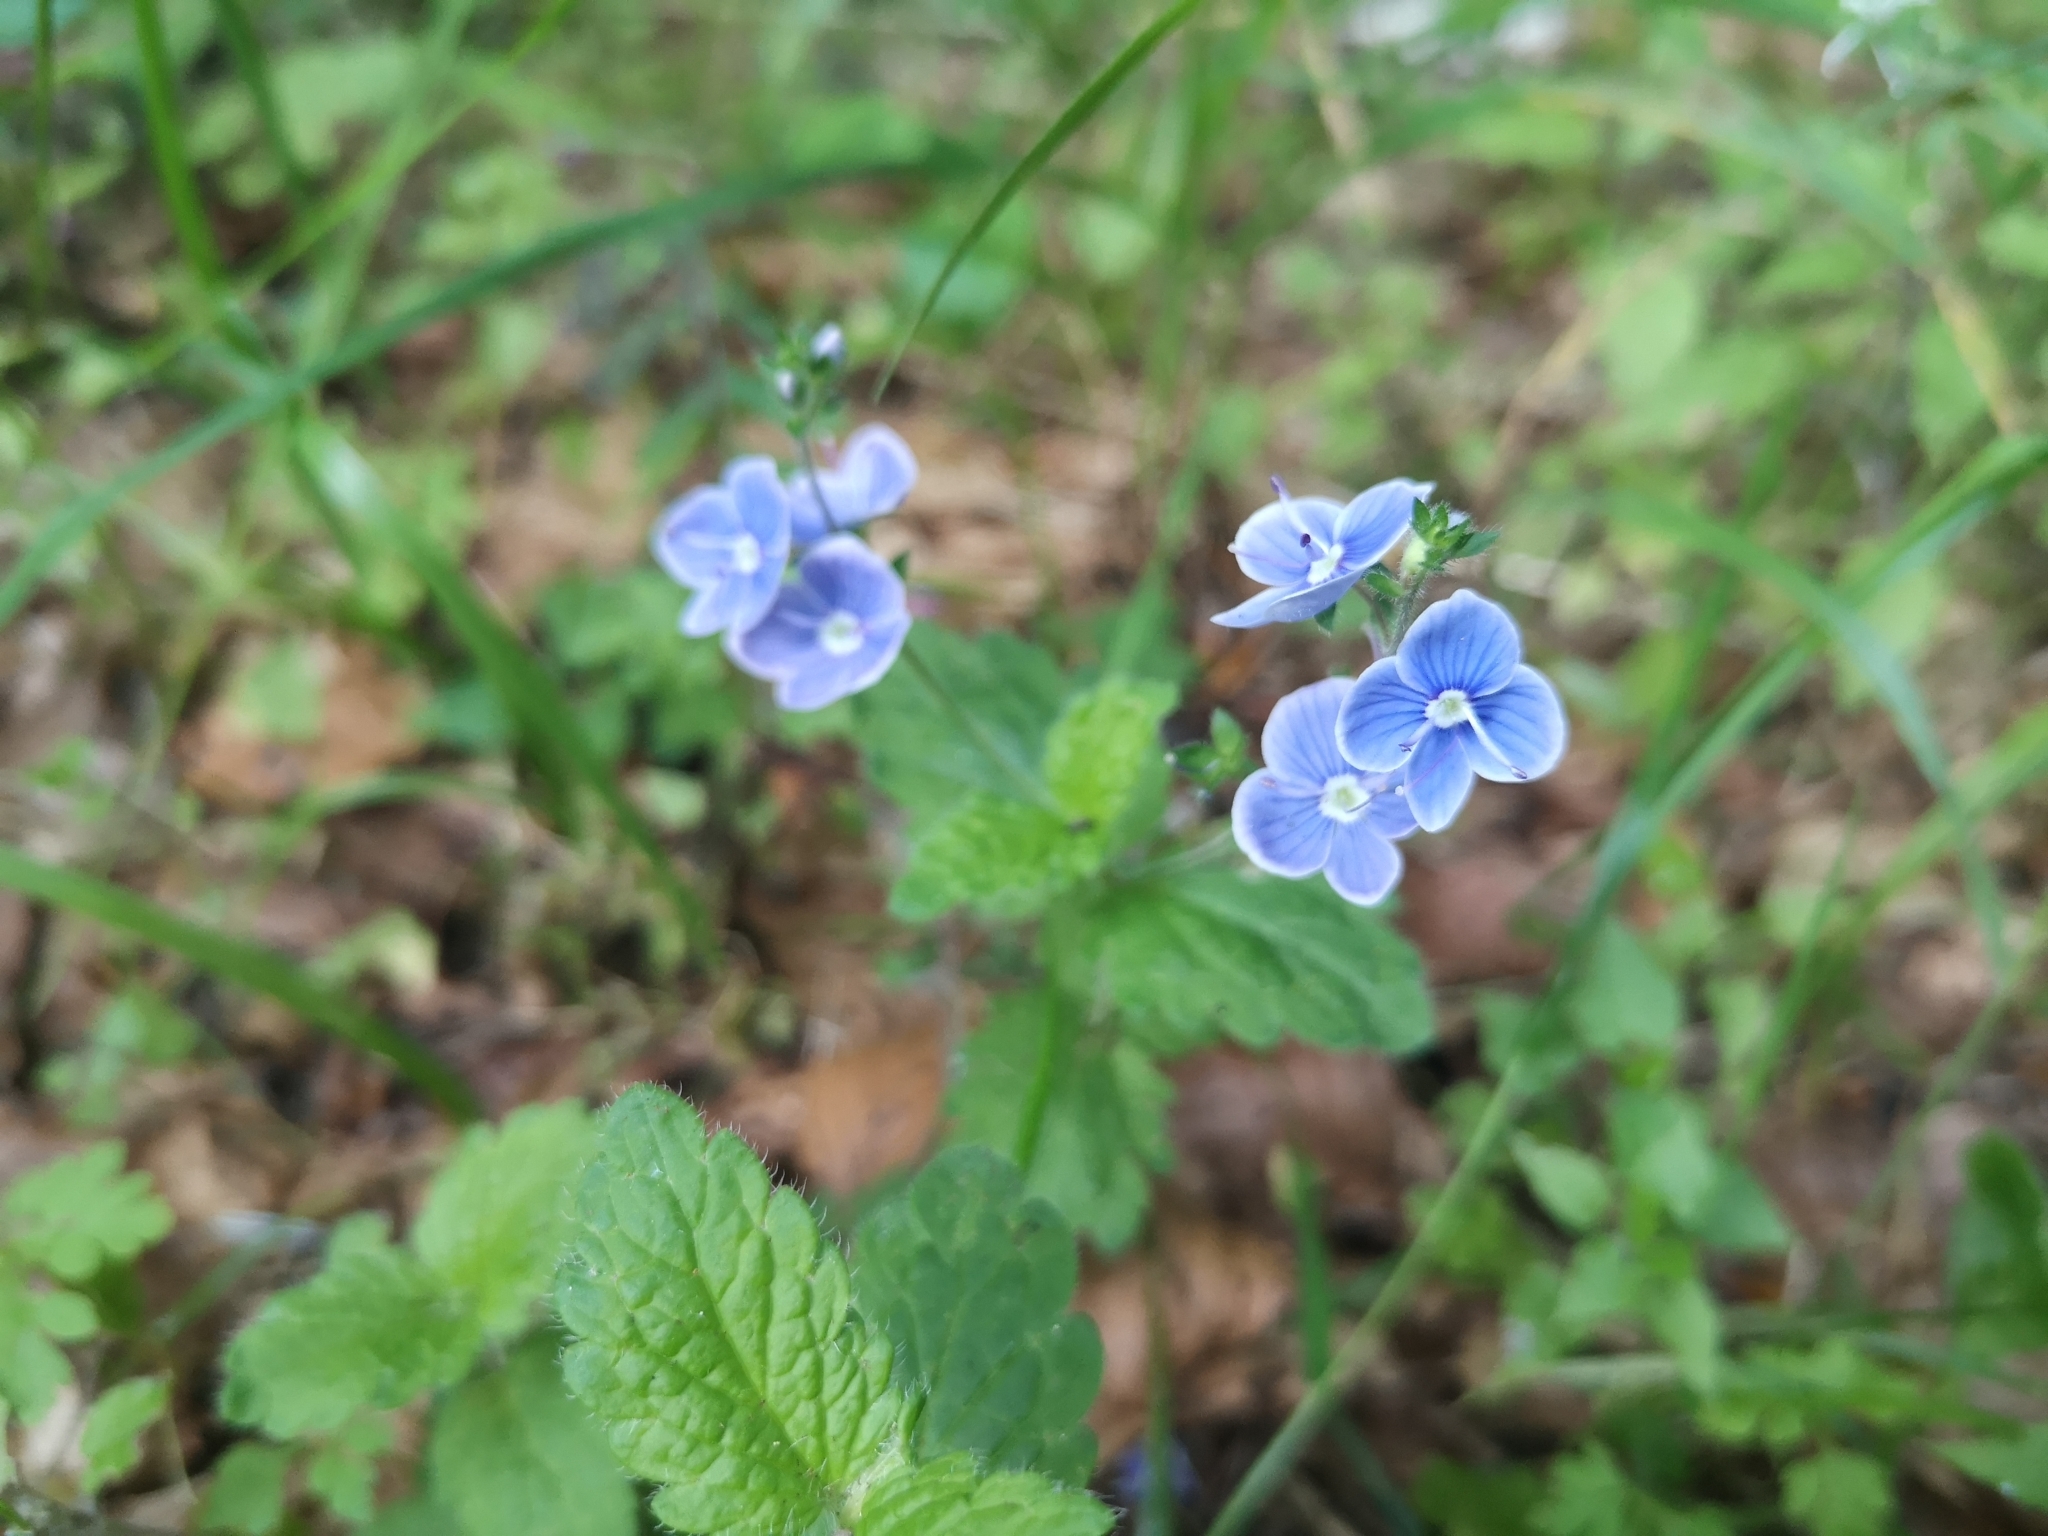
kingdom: Plantae
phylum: Tracheophyta
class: Magnoliopsida
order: Lamiales
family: Plantaginaceae
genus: Veronica
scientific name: Veronica chamaedrys
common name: Germander speedwell
